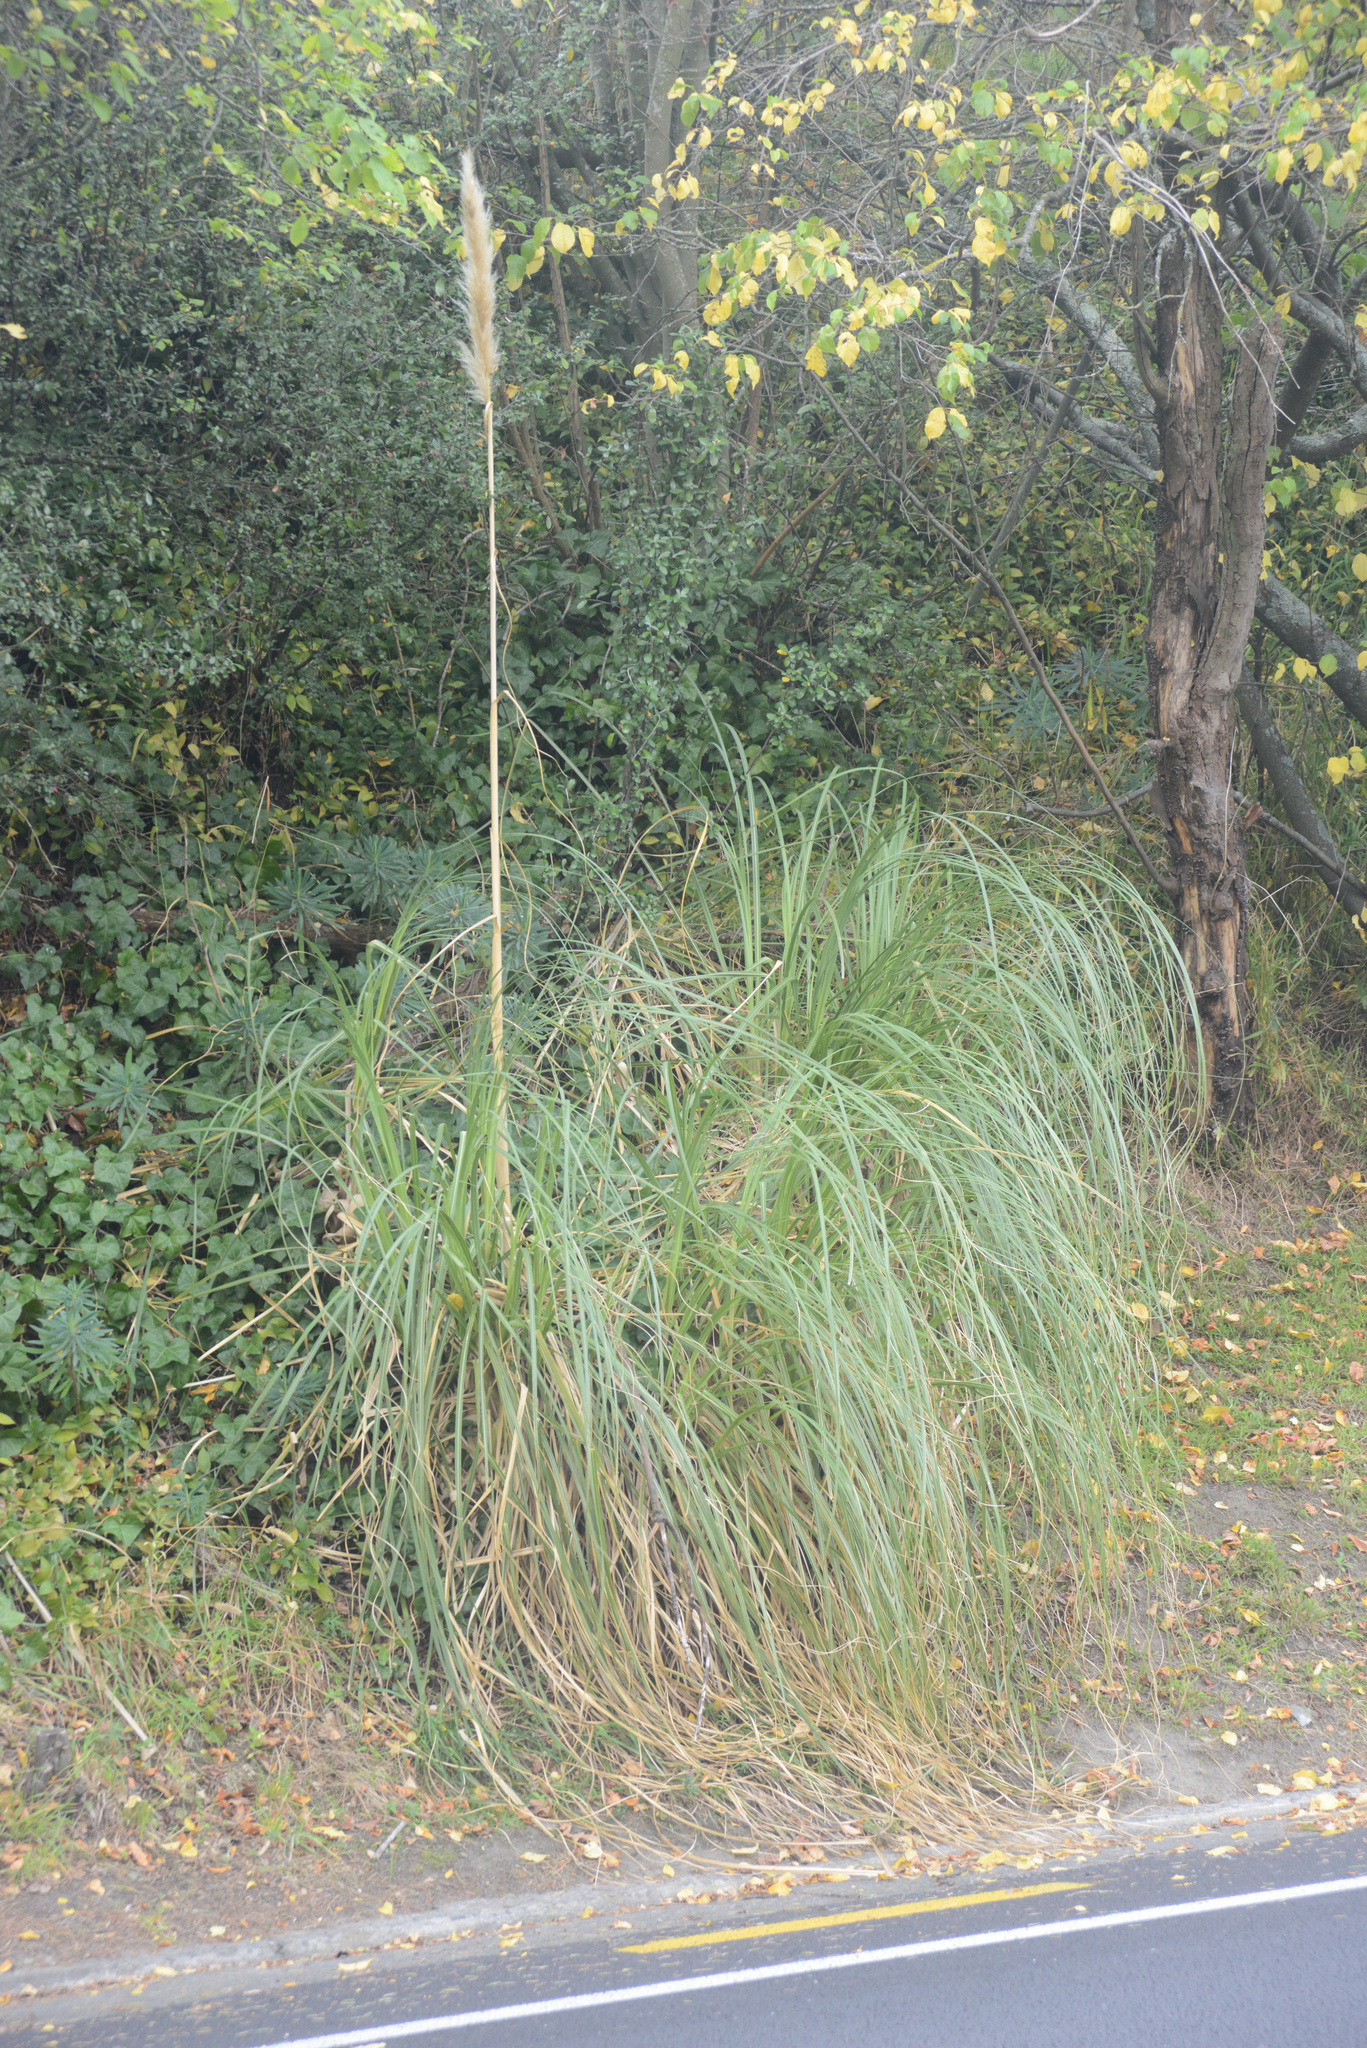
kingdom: Plantae
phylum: Tracheophyta
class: Liliopsida
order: Poales
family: Poaceae
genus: Cortaderia
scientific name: Cortaderia selloana
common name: Uruguayan pampas grass
